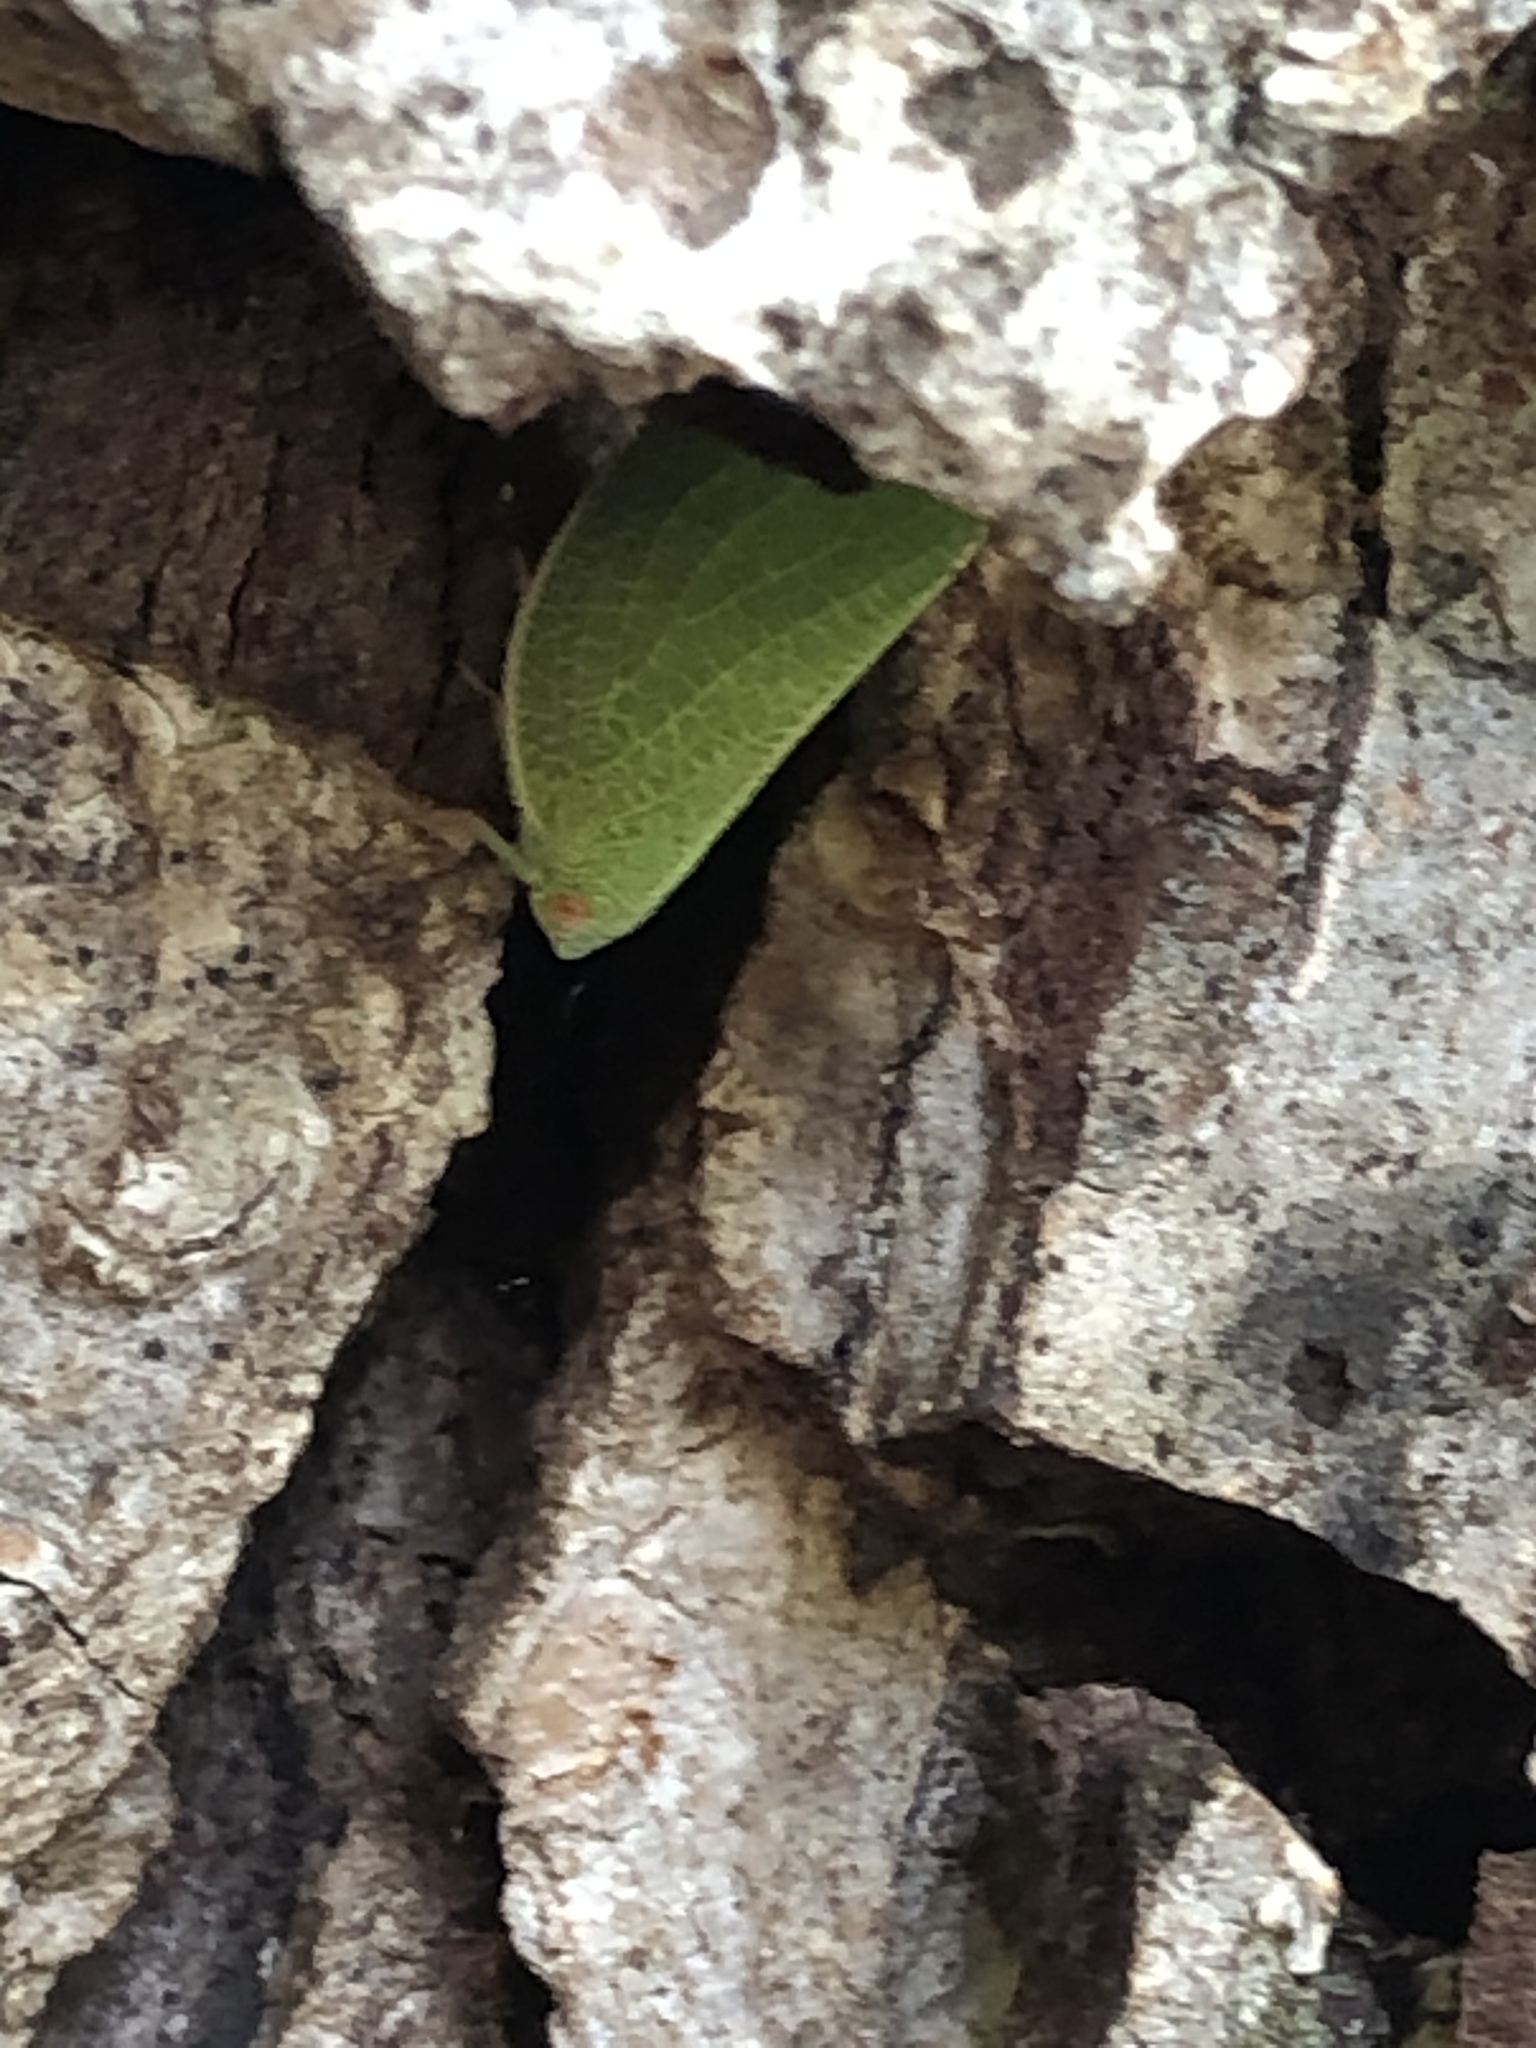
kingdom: Animalia
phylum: Arthropoda
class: Insecta
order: Hemiptera
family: Acanaloniidae
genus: Acanalonia
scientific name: Acanalonia conica
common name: Green cone-headed planthopper
